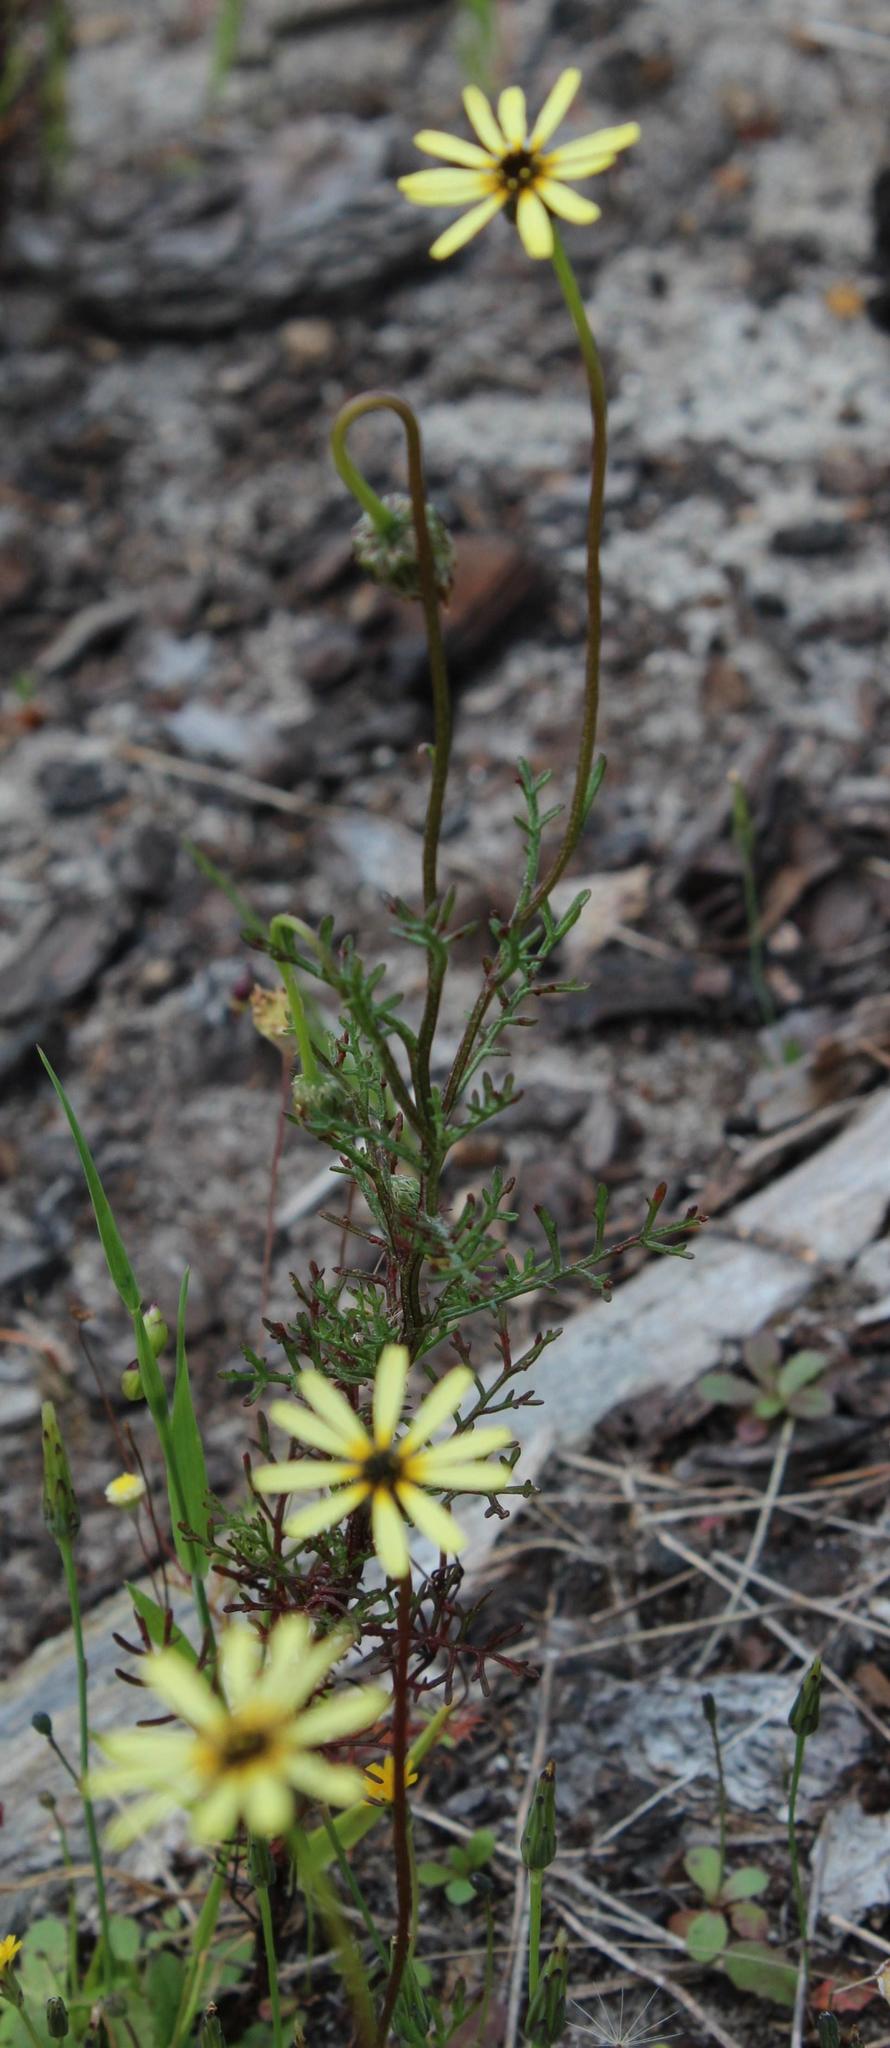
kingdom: Plantae
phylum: Tracheophyta
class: Magnoliopsida
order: Asterales
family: Asteraceae
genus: Ursinia
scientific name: Ursinia anthemoides
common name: Ursinia
